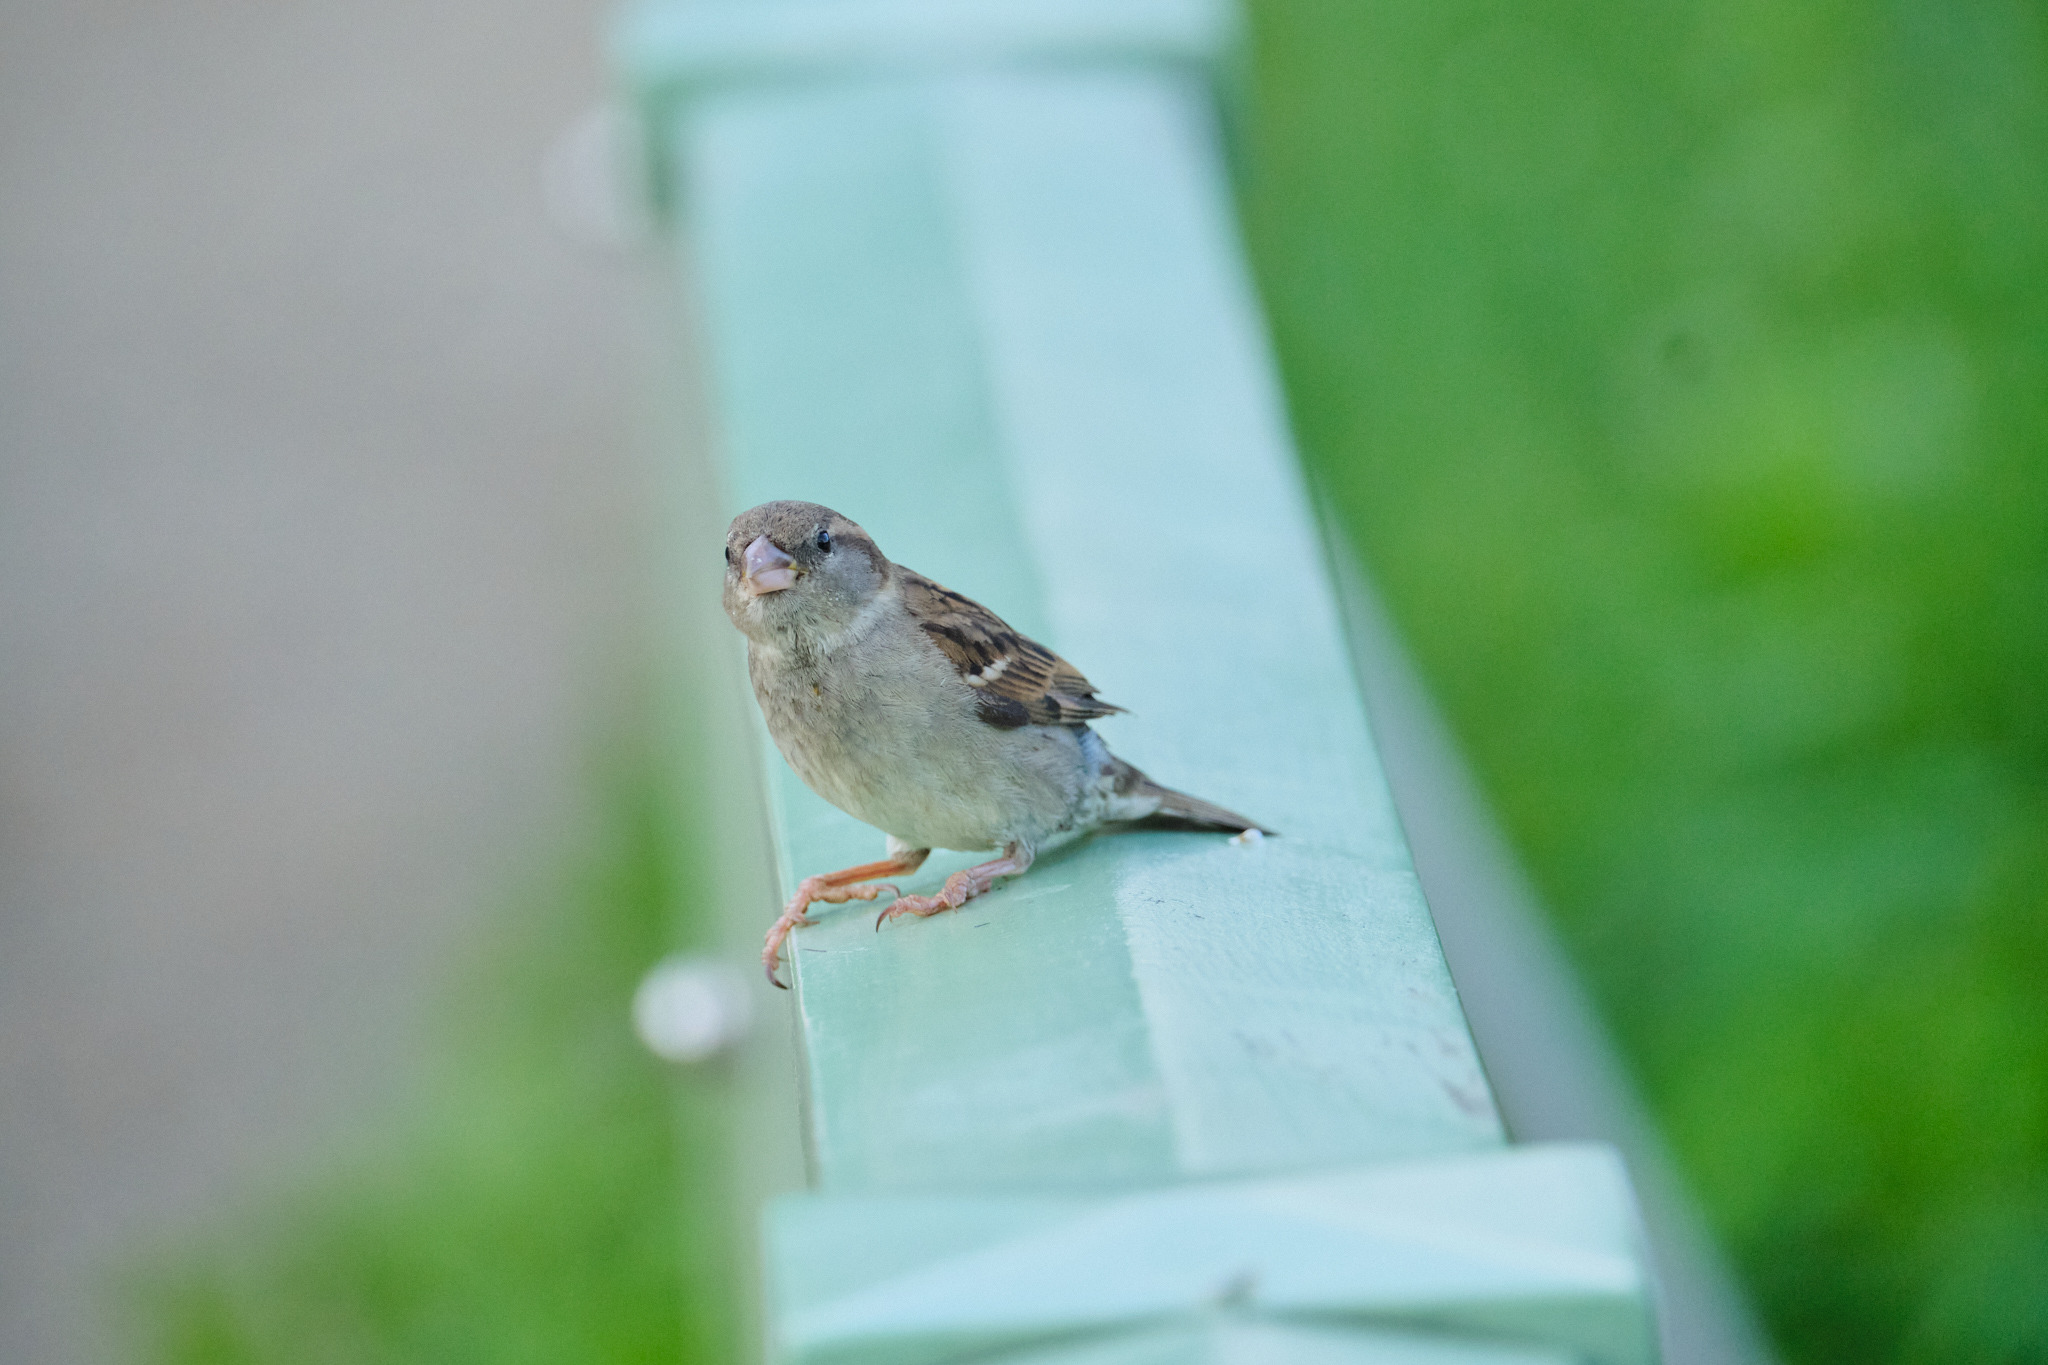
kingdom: Animalia
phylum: Chordata
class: Aves
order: Passeriformes
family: Passeridae
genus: Passer
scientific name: Passer domesticus
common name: House sparrow
